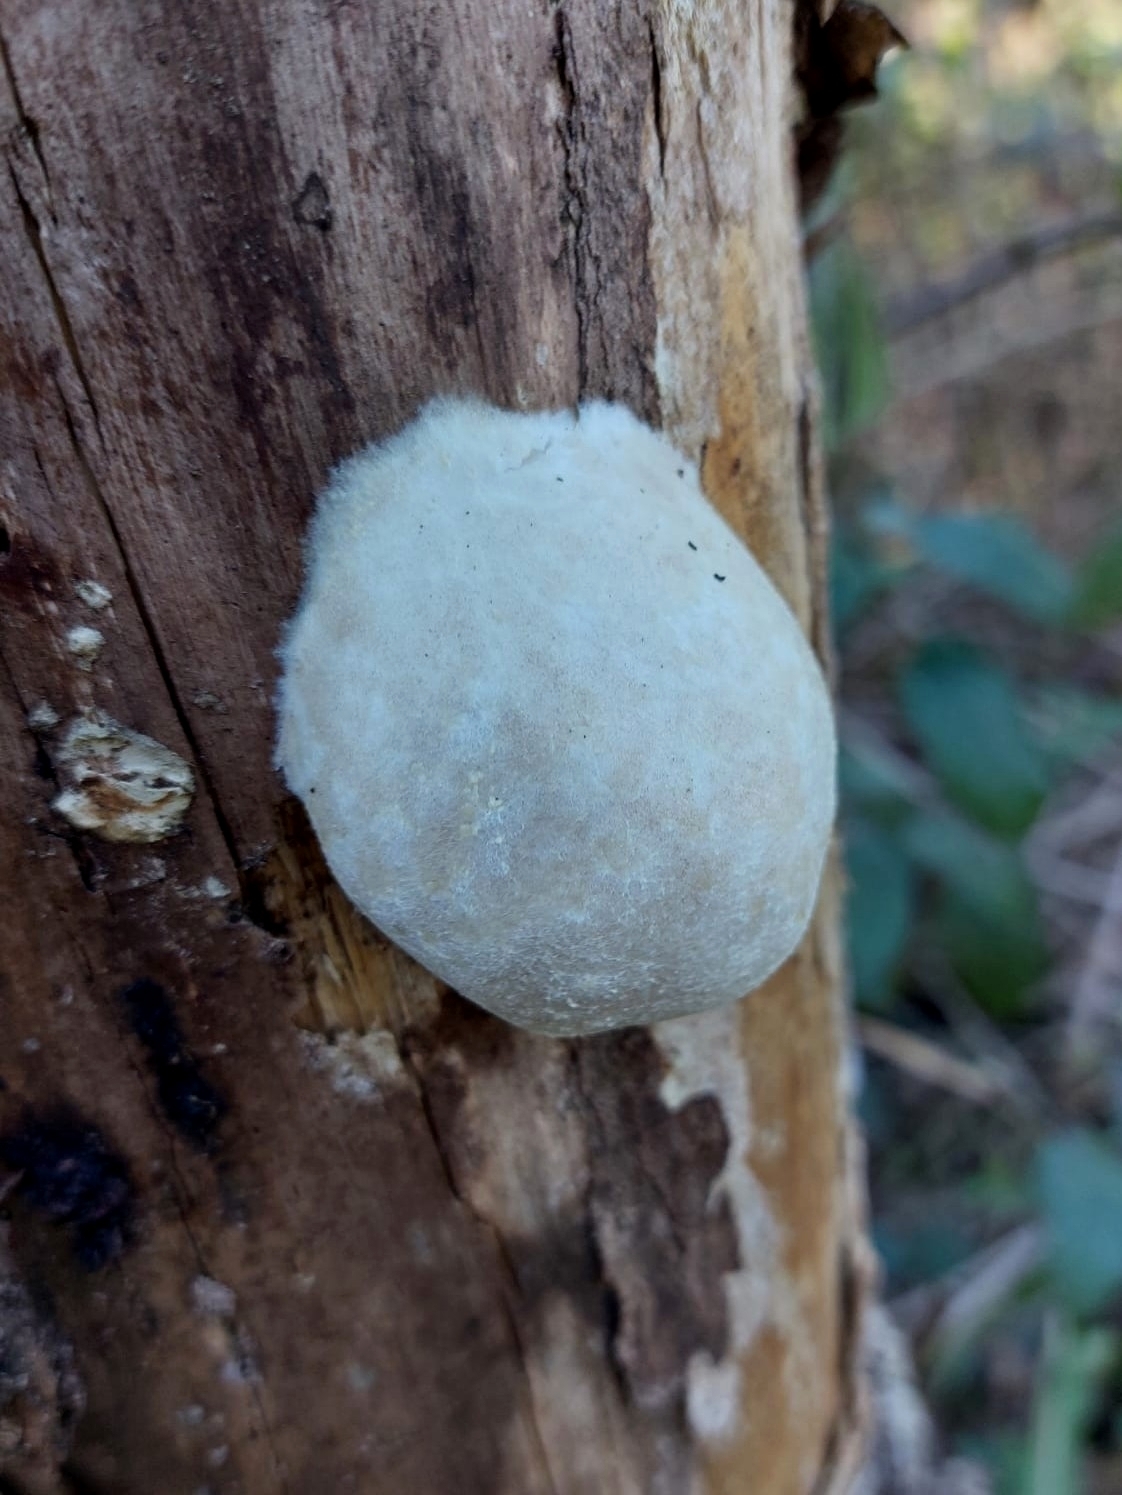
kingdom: Protozoa
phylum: Mycetozoa
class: Myxomycetes
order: Cribrariales
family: Tubiferaceae
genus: Reticularia
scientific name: Reticularia lycoperdon
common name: False puffball
